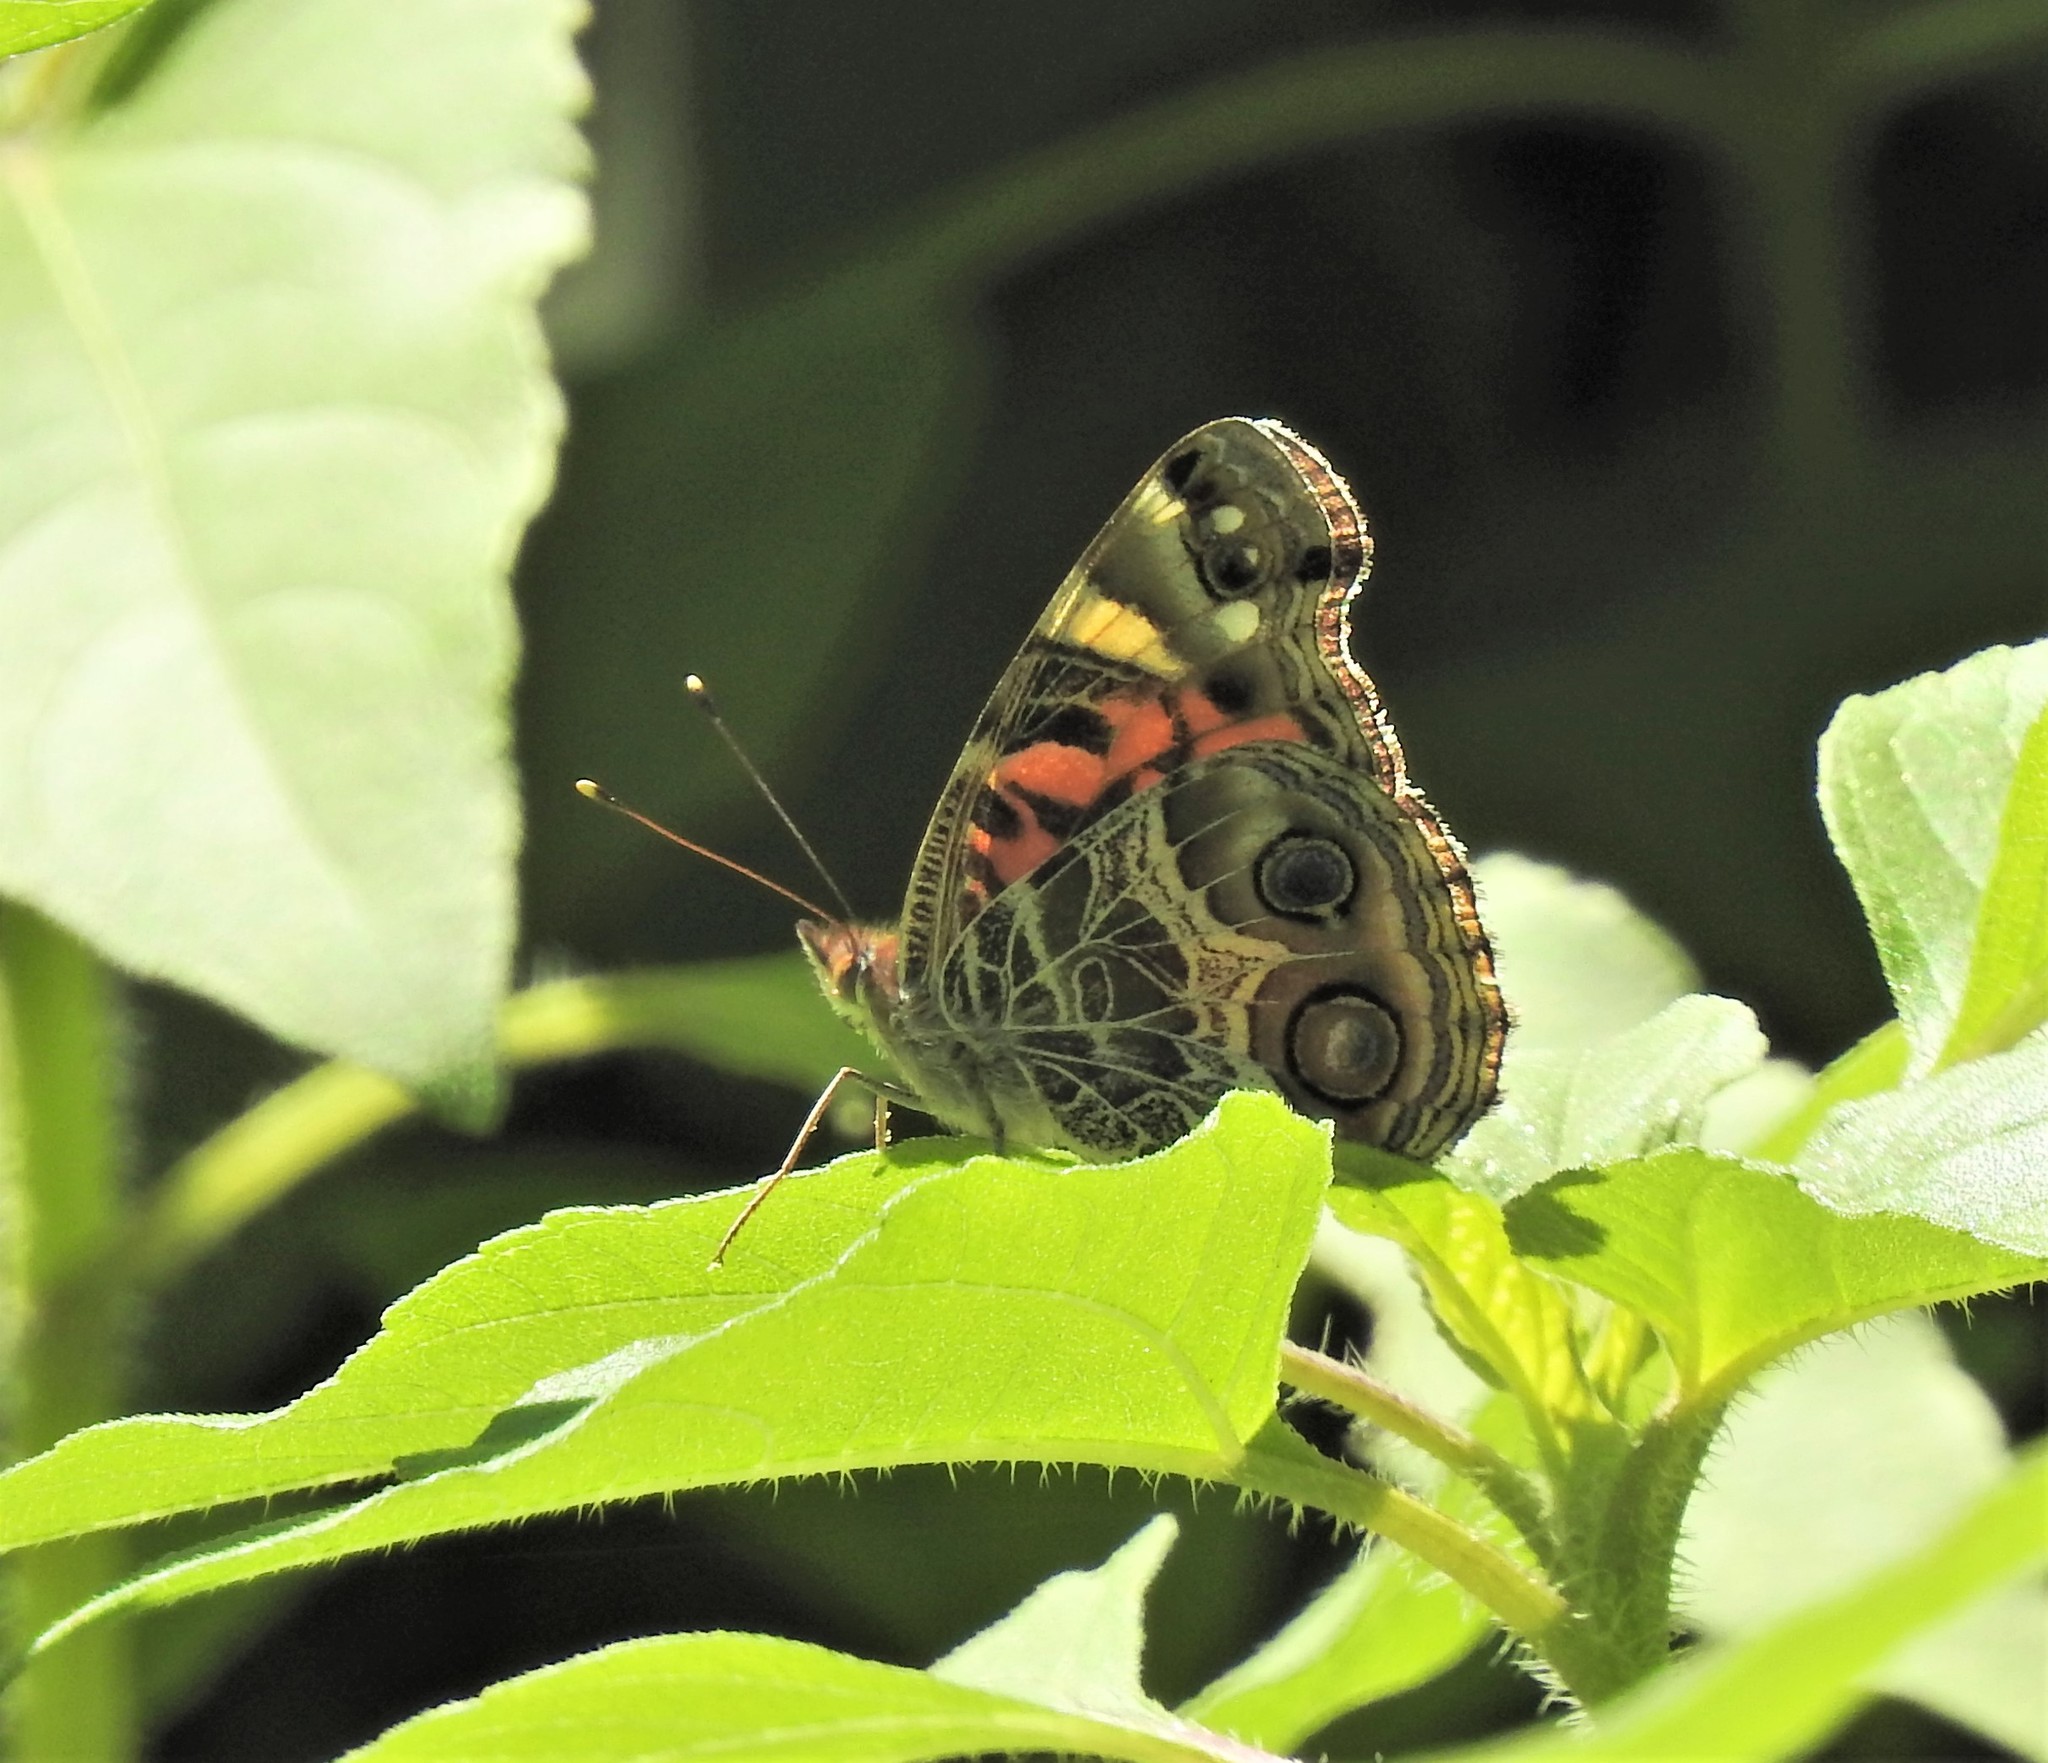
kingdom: Animalia
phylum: Arthropoda
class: Insecta
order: Lepidoptera
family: Nymphalidae
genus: Vanessa
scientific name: Vanessa virginiensis
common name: American lady
